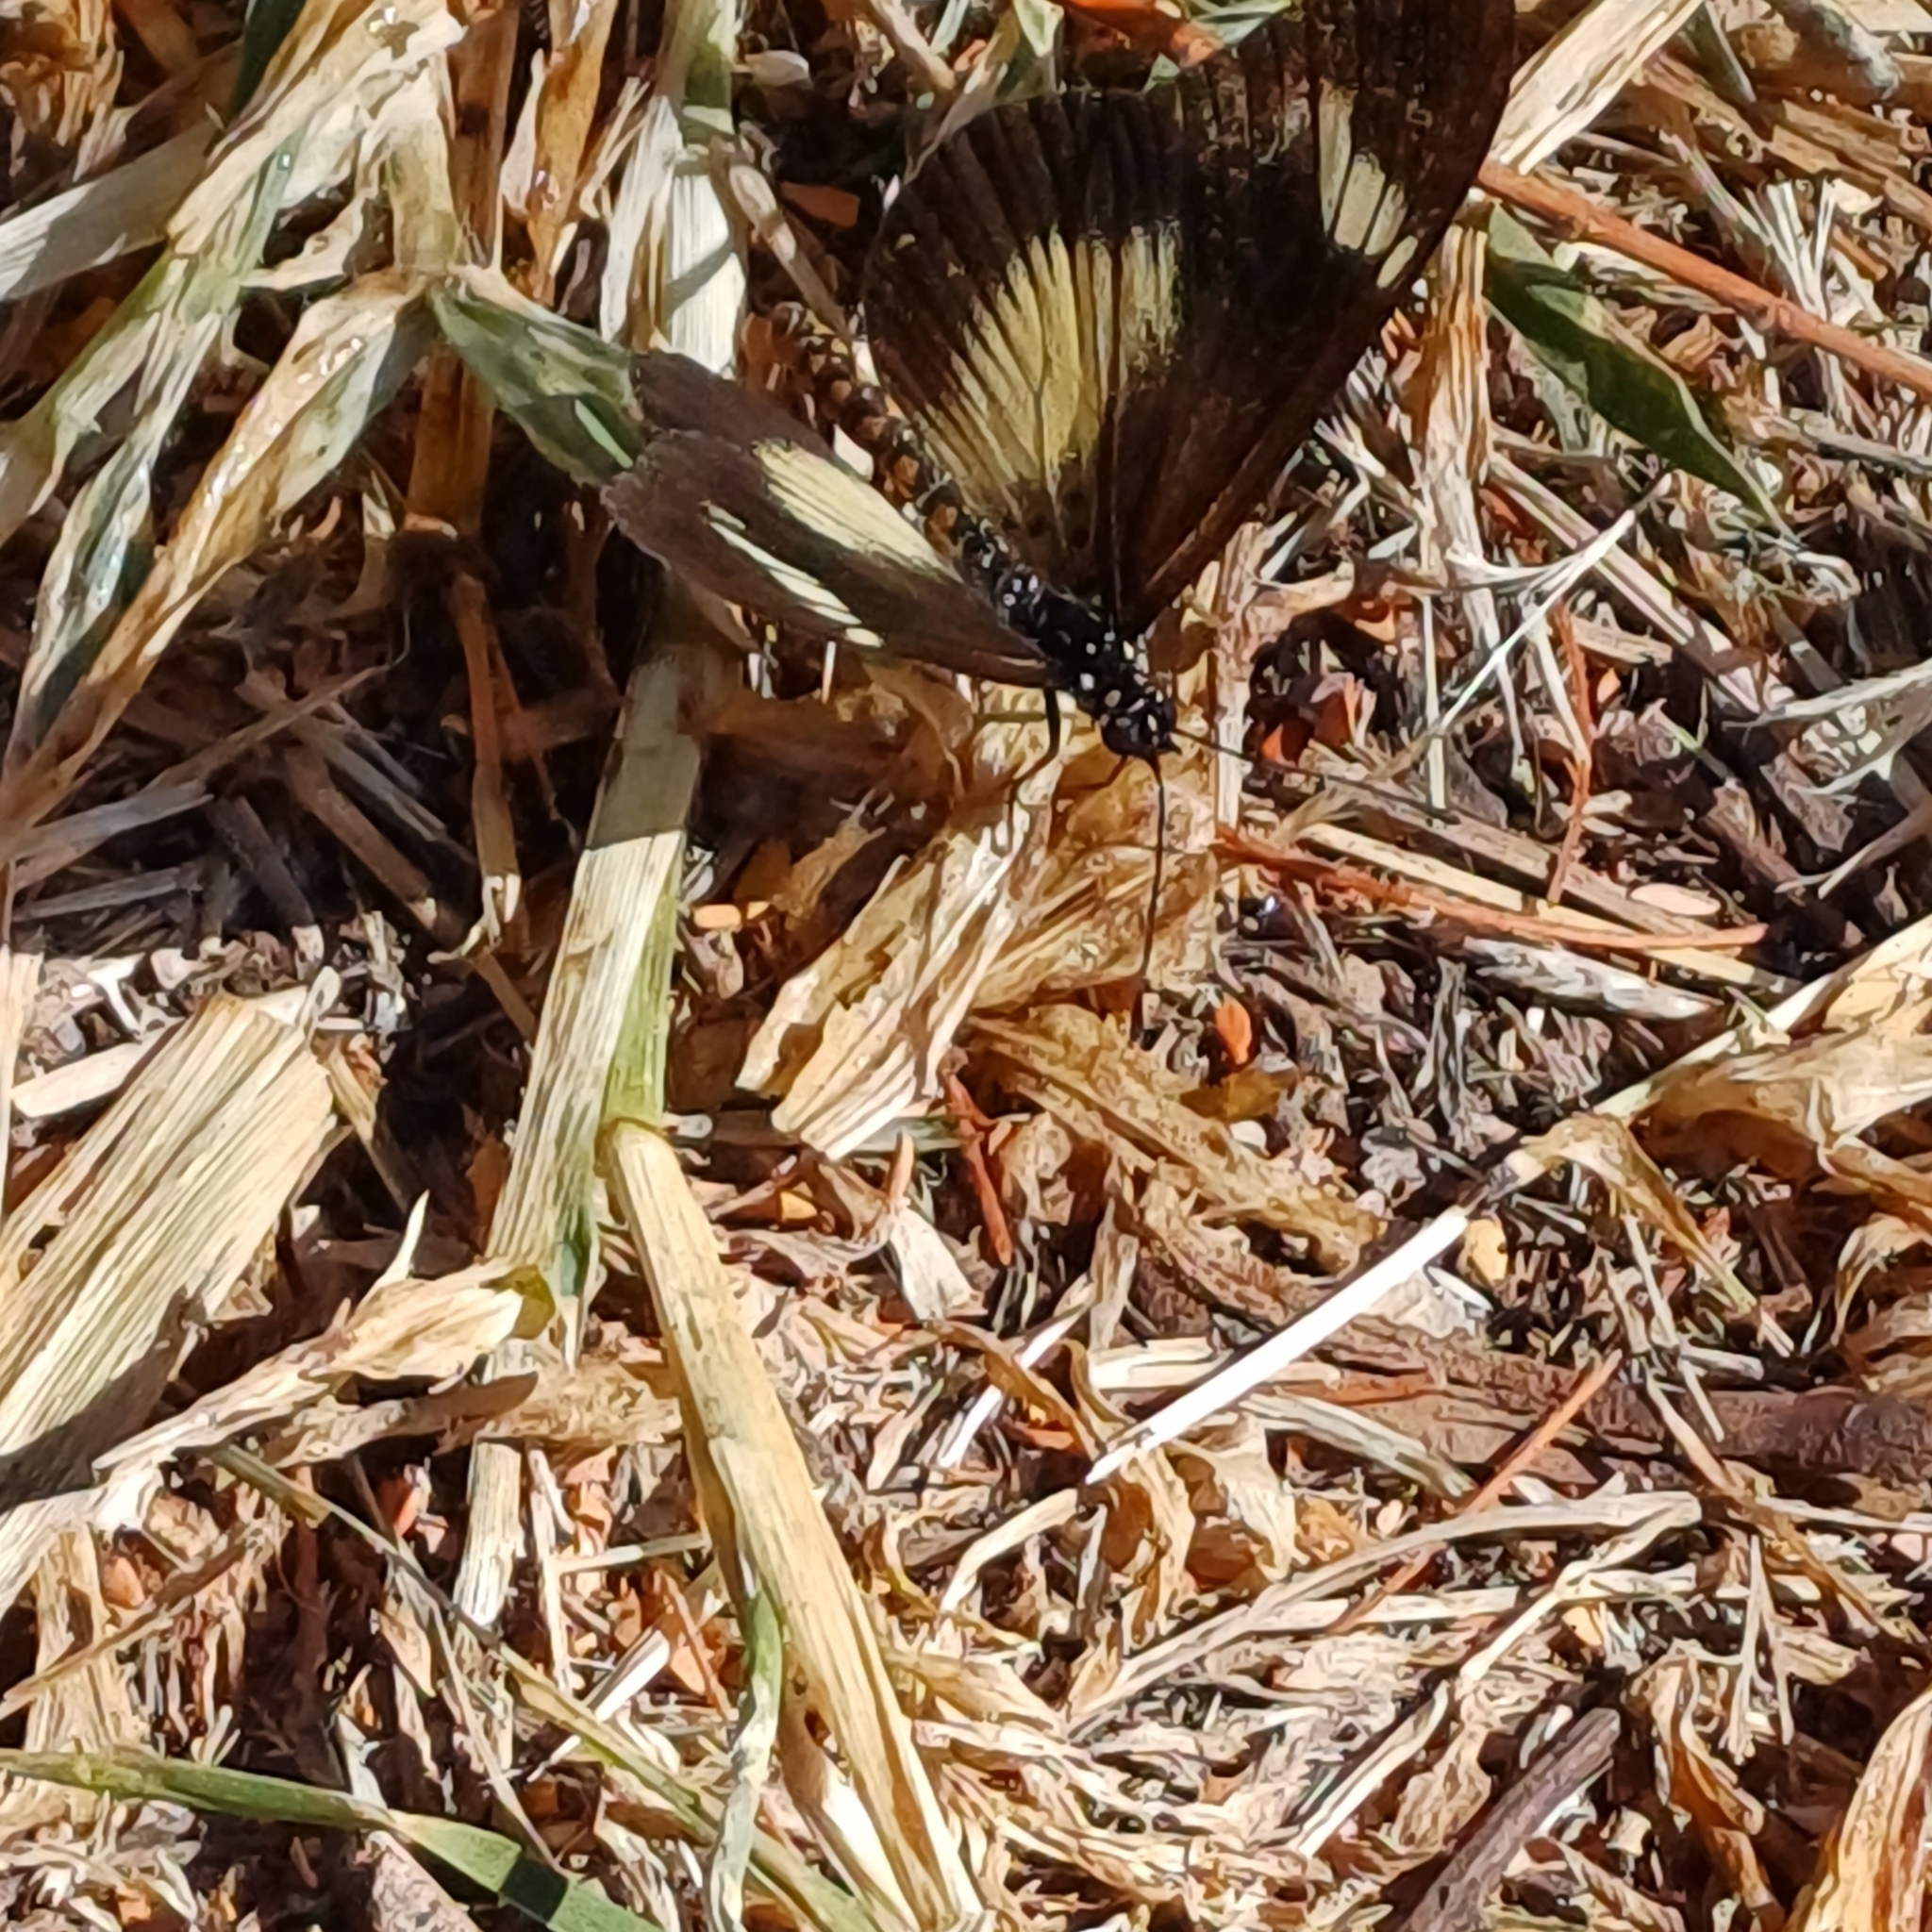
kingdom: Animalia
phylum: Arthropoda
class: Insecta
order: Lepidoptera
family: Nymphalidae
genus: Acraea
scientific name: Acraea esebria
